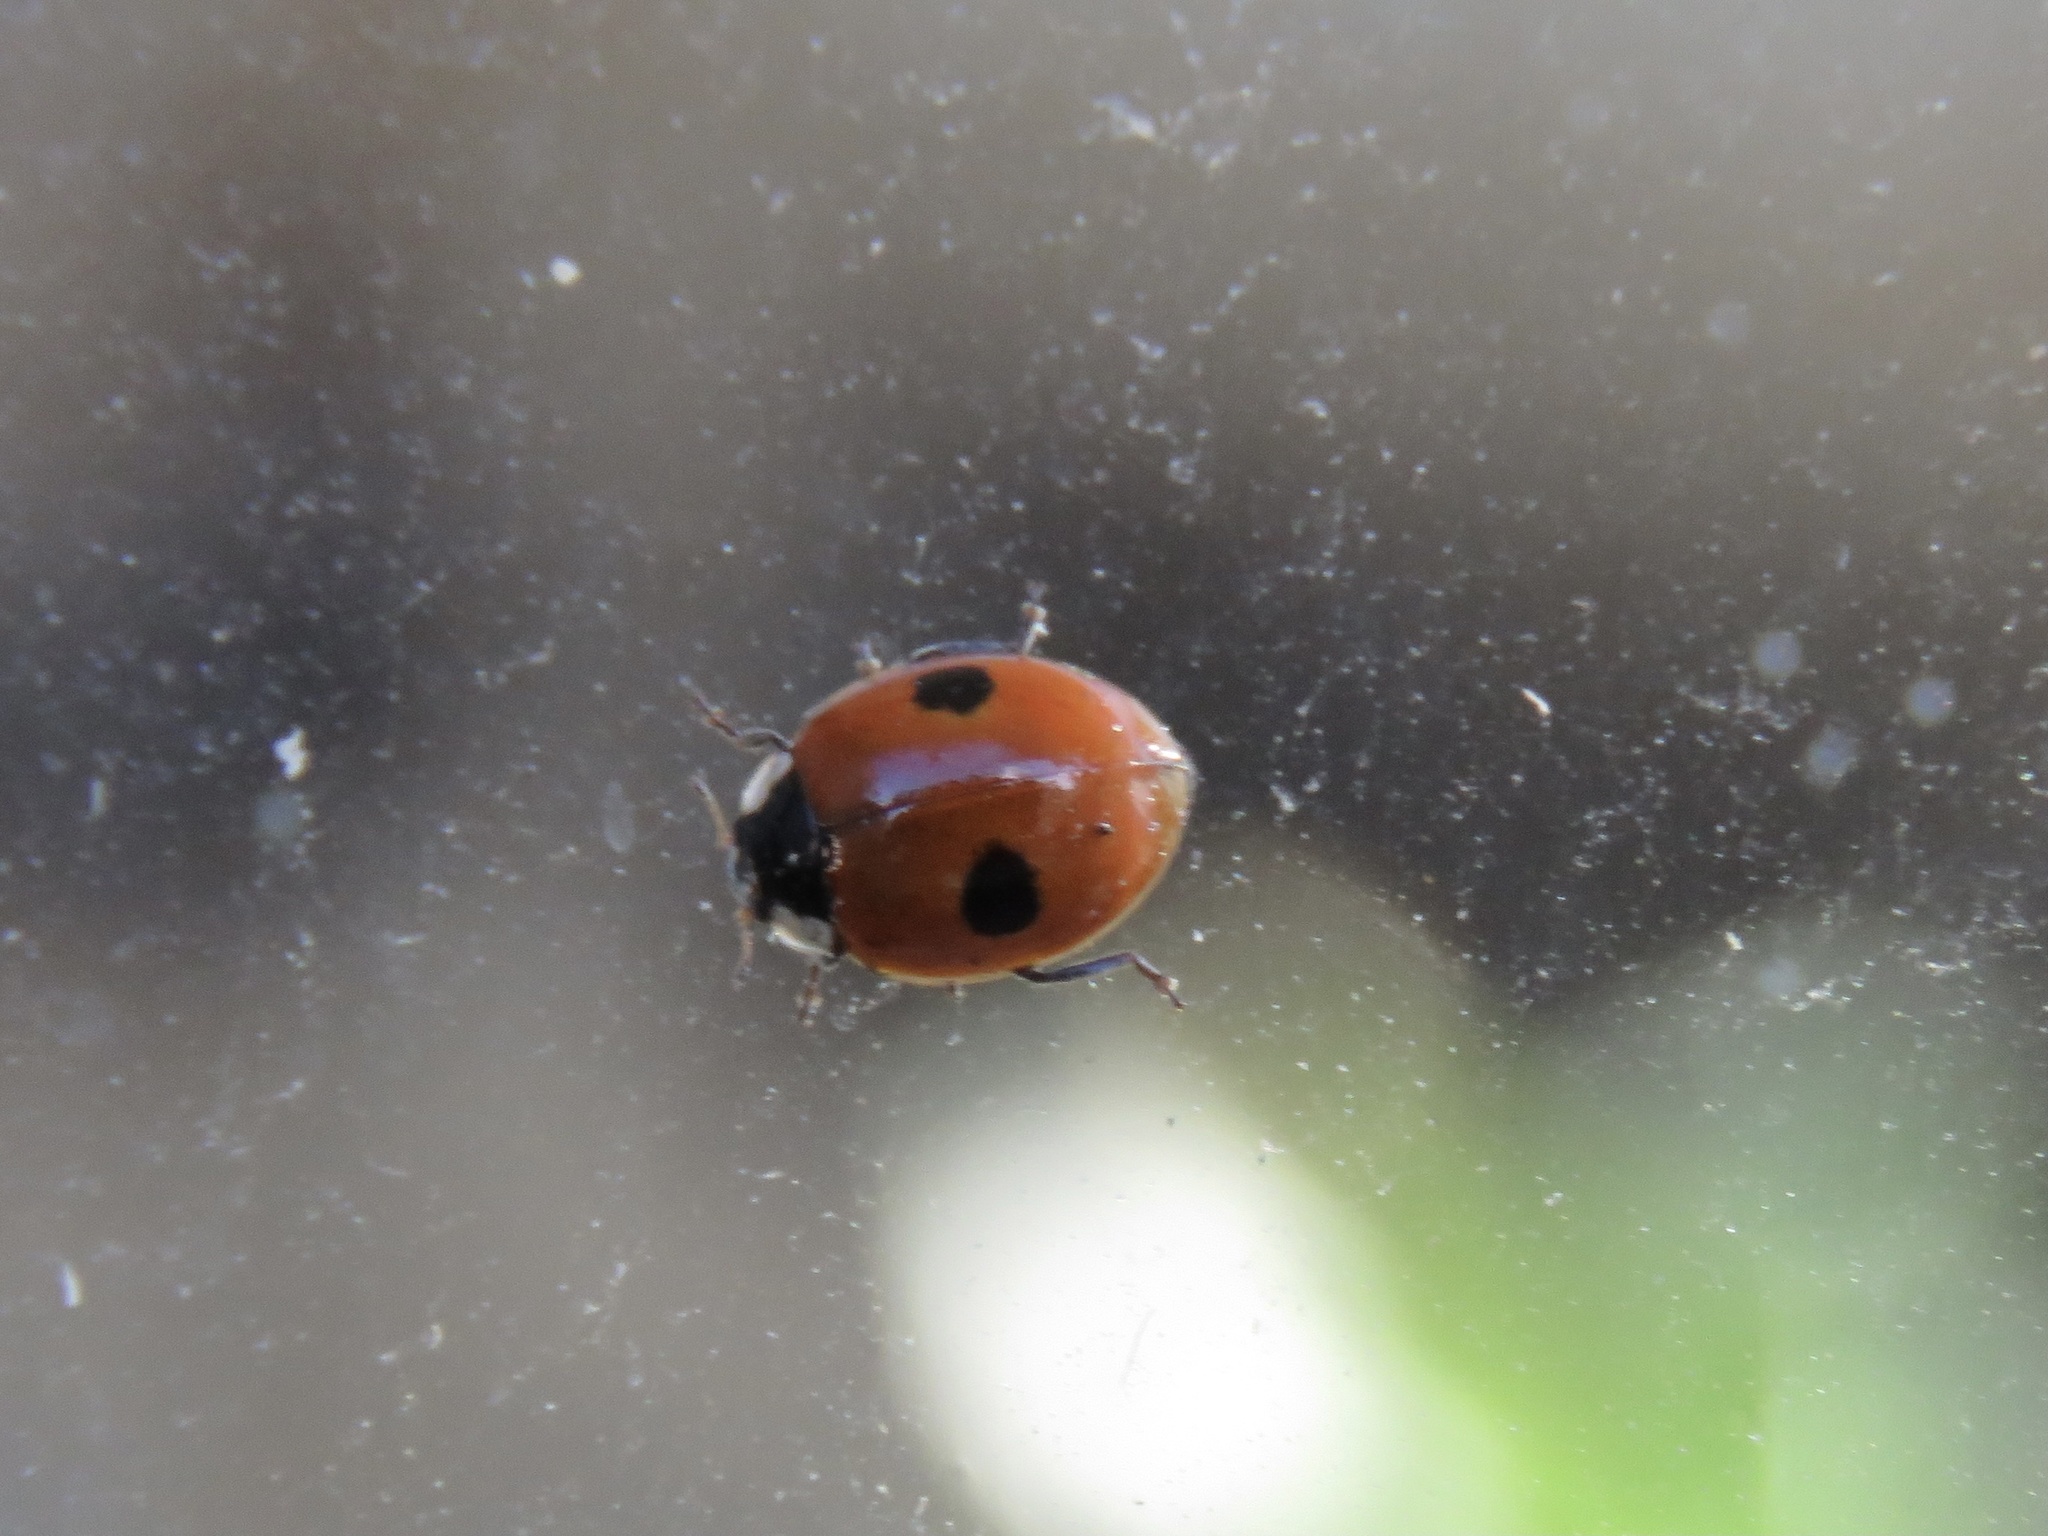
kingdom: Animalia
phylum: Arthropoda
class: Insecta
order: Coleoptera
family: Coccinellidae
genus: Adalia
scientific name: Adalia bipunctata
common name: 2-spot ladybird
